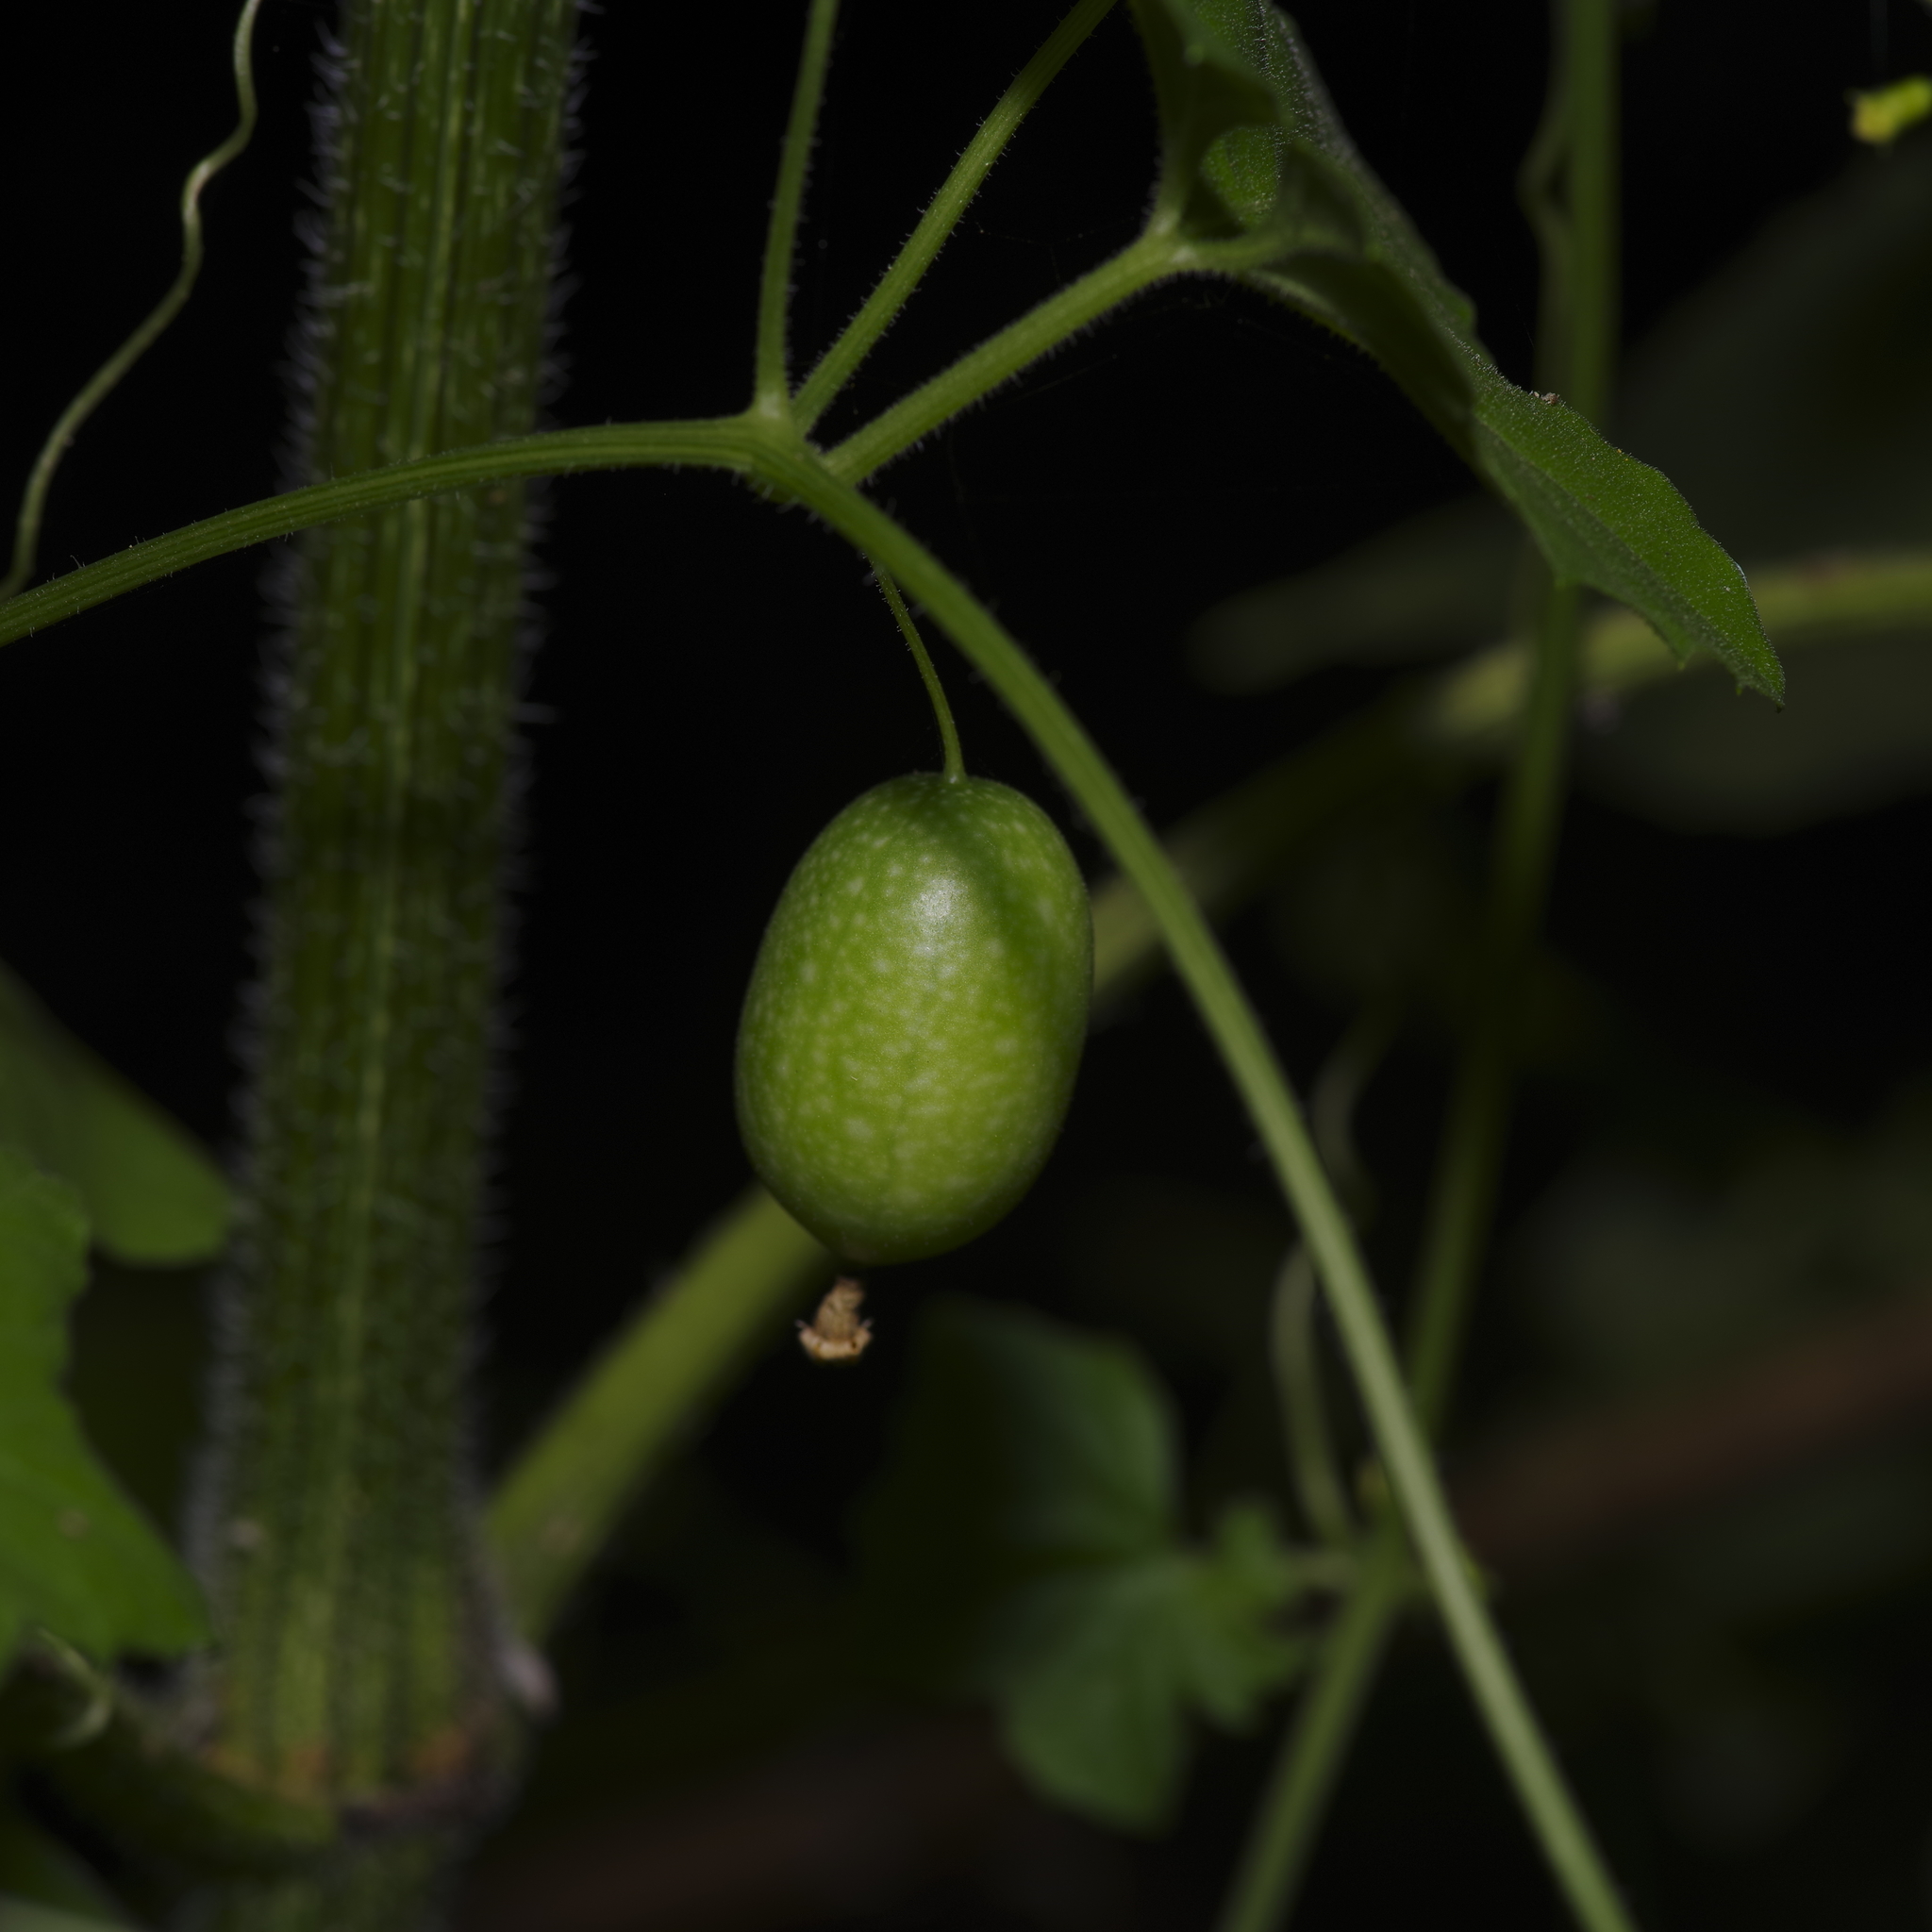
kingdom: Plantae
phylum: Tracheophyta
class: Magnoliopsida
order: Cucurbitales
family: Cucurbitaceae
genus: Melothria
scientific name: Melothria pendula
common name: Creeping-cucumber
